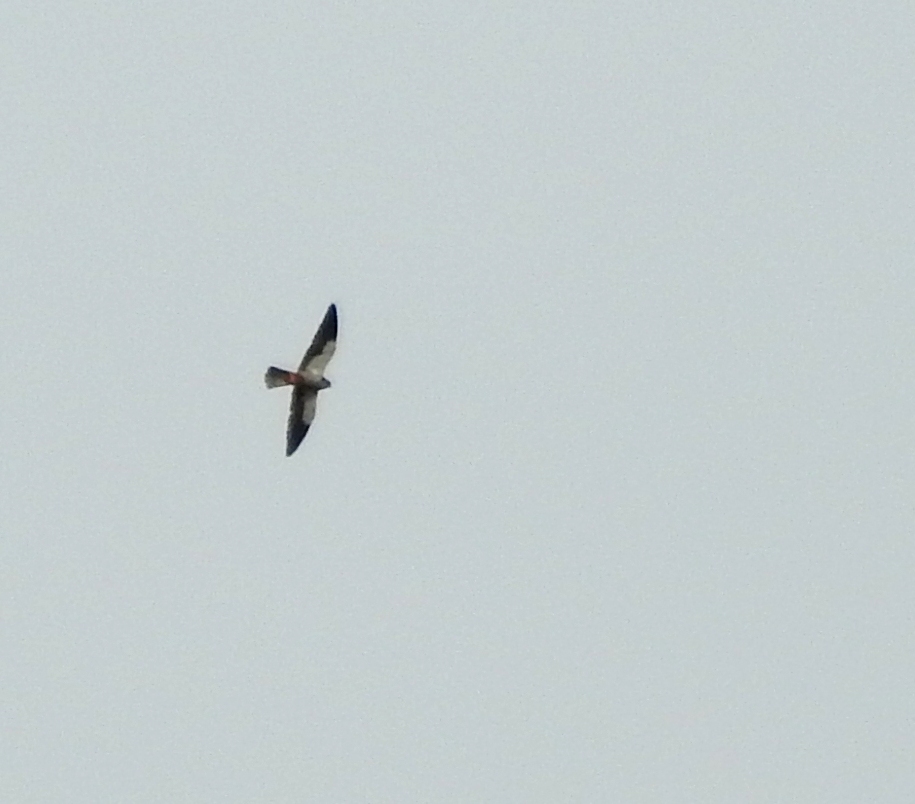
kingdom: Animalia
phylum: Chordata
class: Aves
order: Falconiformes
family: Falconidae
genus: Falco
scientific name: Falco amurensis
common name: Amur falcon
